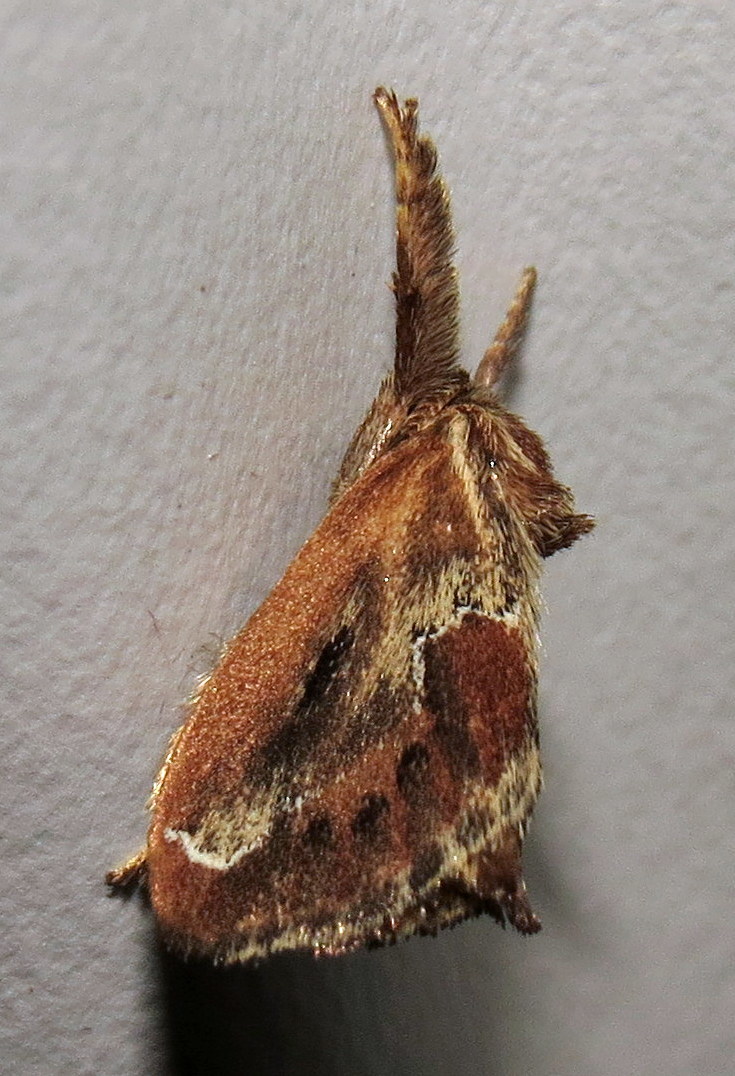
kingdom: Animalia
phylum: Arthropoda
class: Insecta
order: Lepidoptera
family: Limacodidae
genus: Adoneta
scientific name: Adoneta spinuloides
